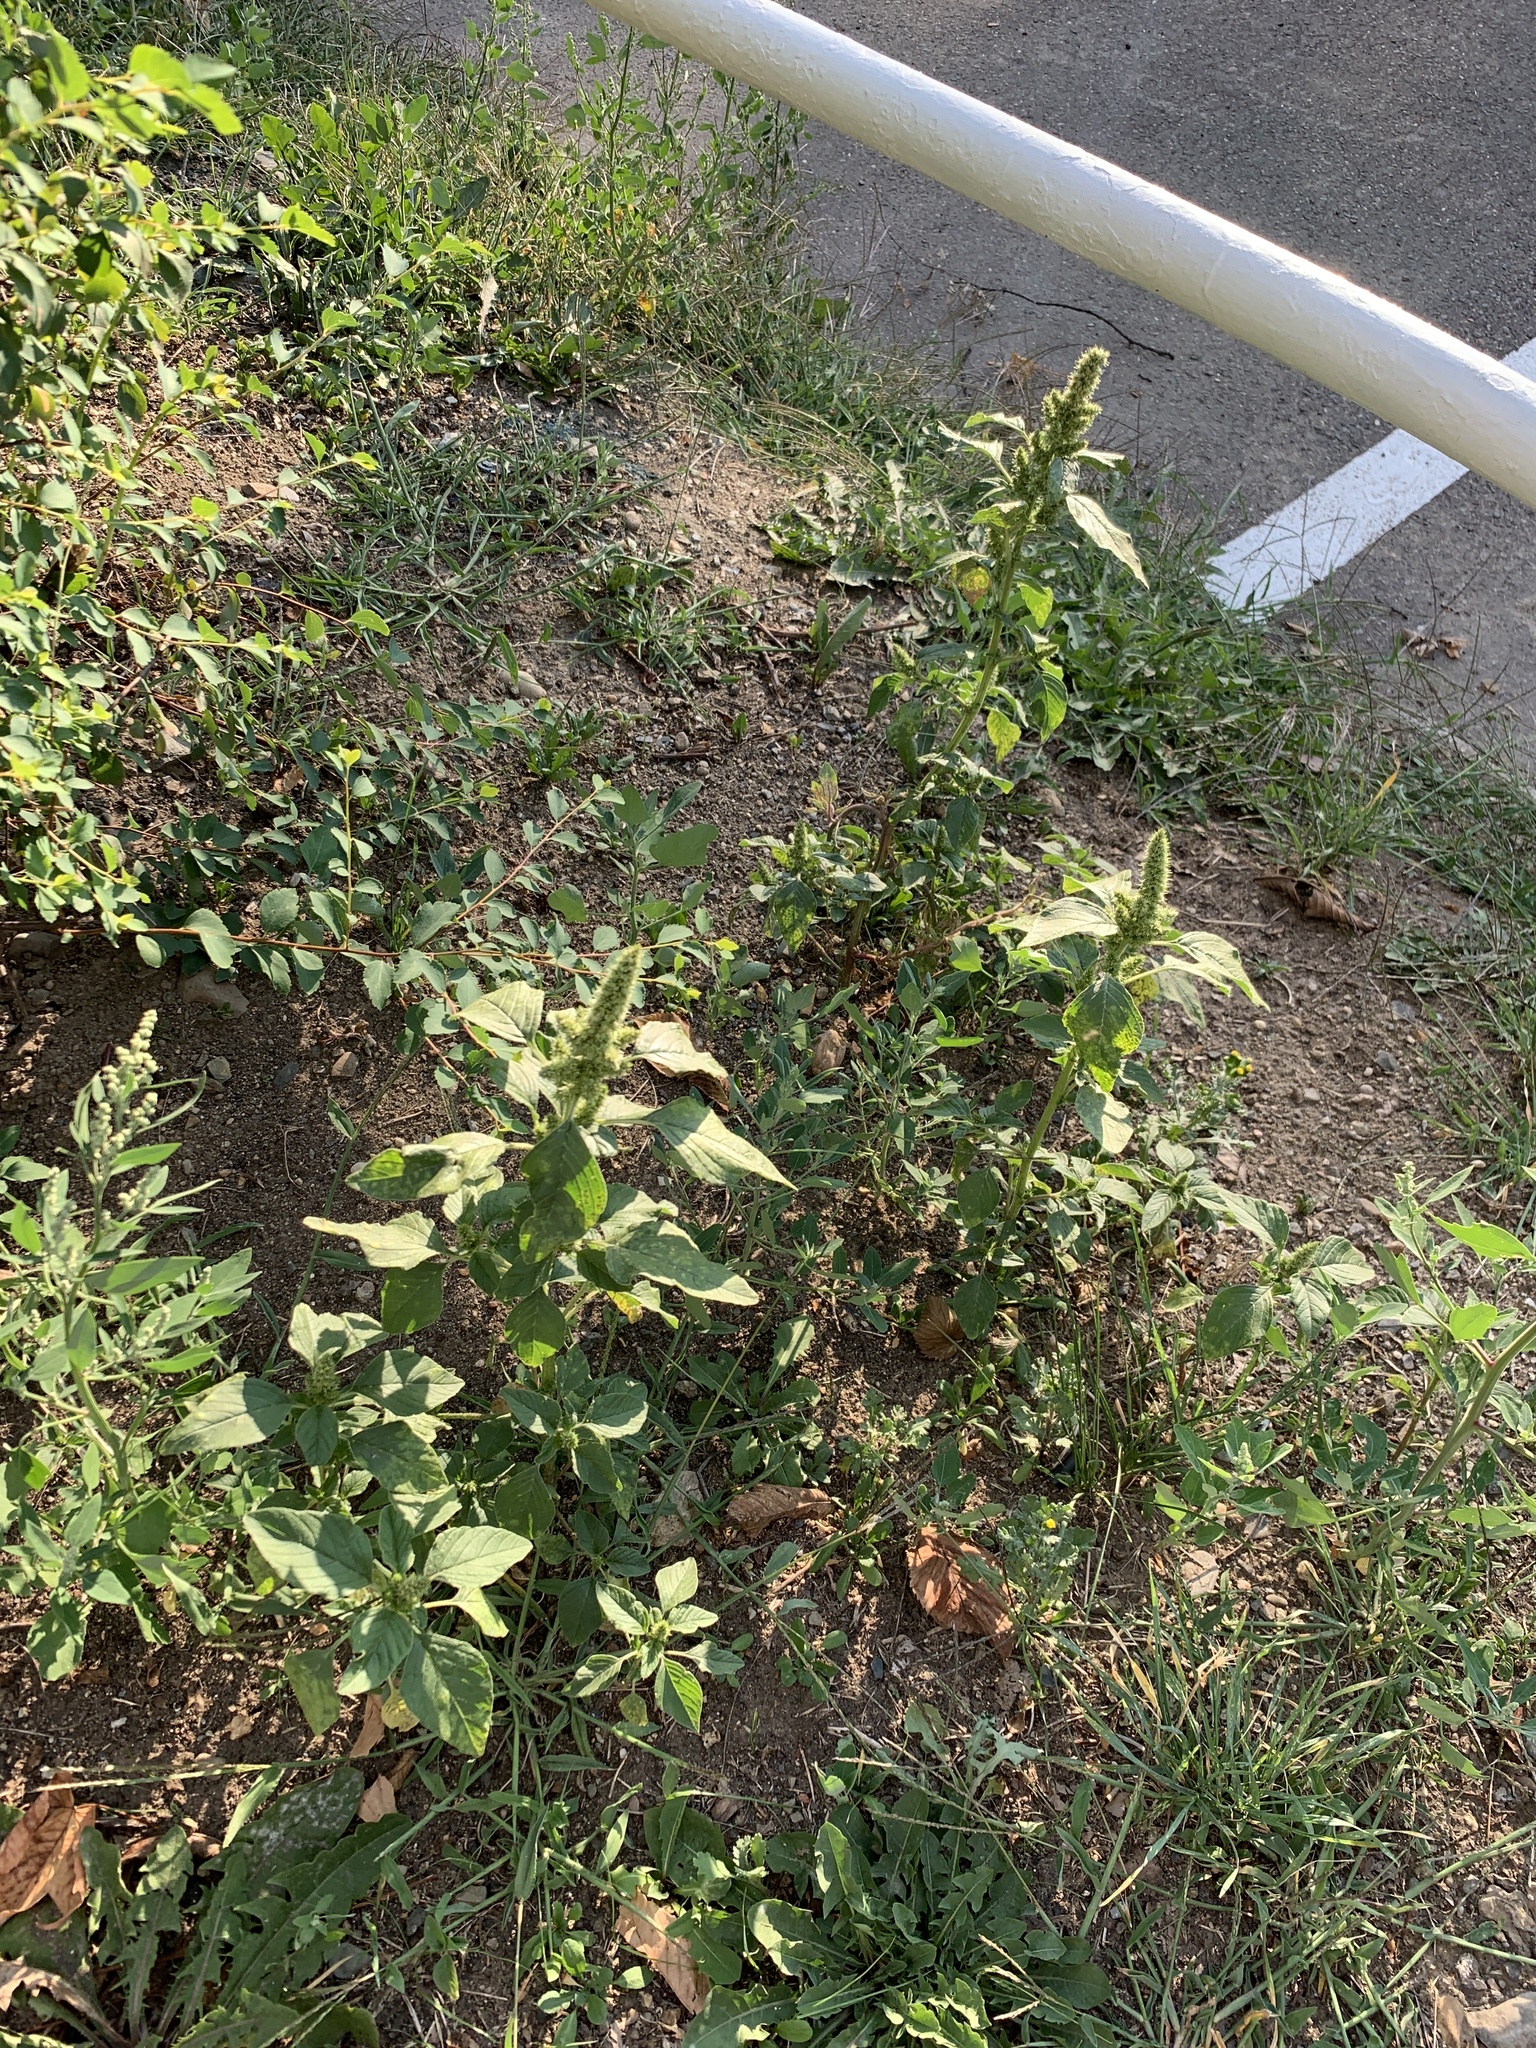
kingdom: Plantae
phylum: Tracheophyta
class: Magnoliopsida
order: Caryophyllales
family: Amaranthaceae
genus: Amaranthus
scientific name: Amaranthus retroflexus
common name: Redroot amaranth
